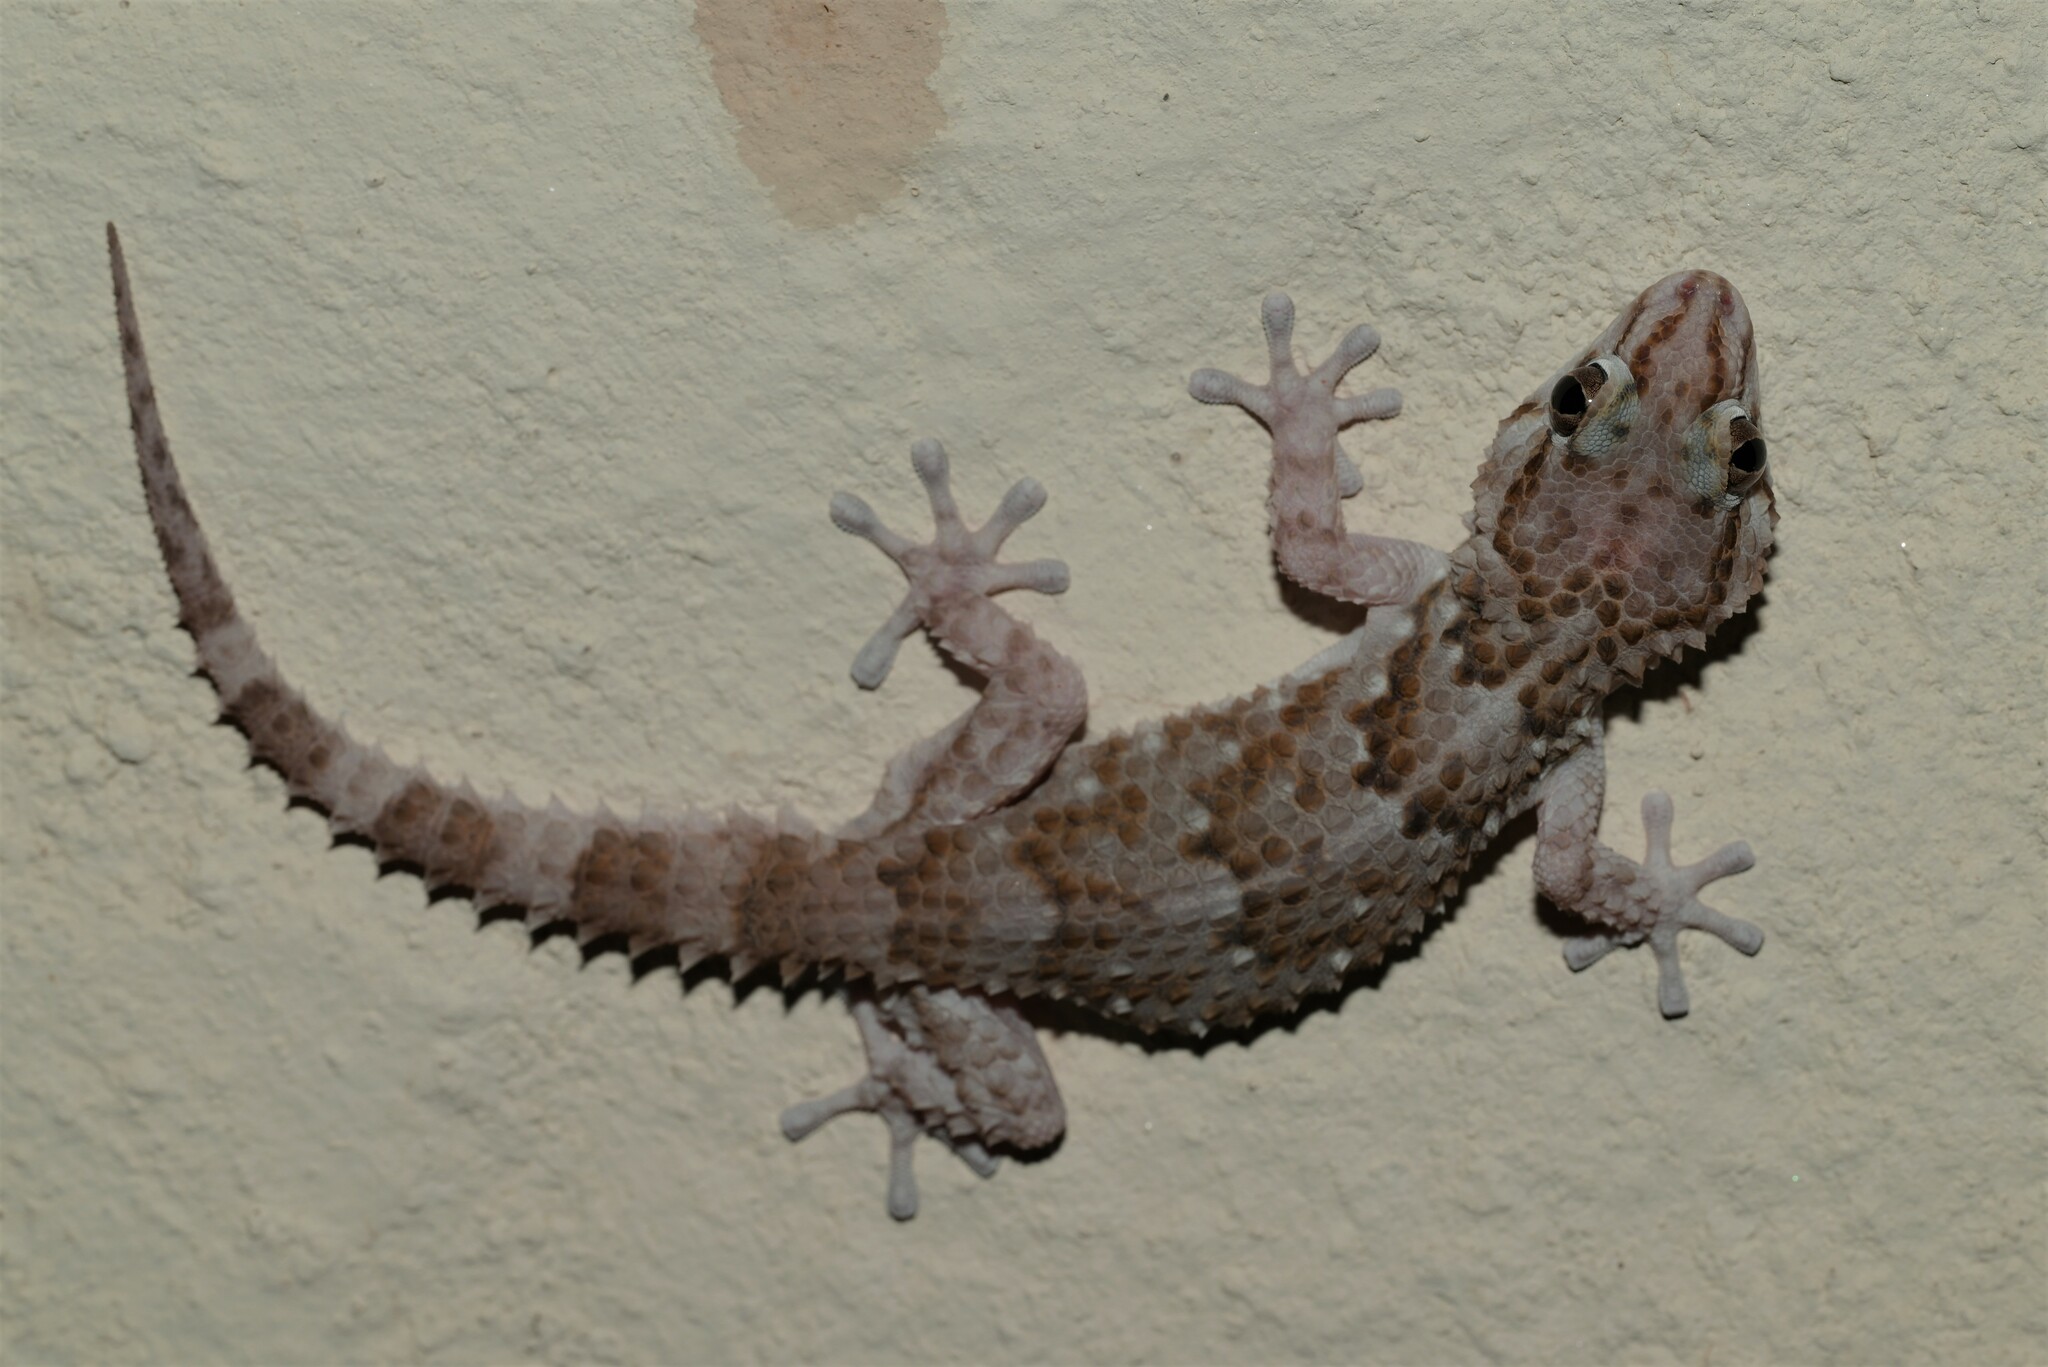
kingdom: Animalia
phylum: Chordata
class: Squamata
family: Gekkonidae
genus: Chondrodactylus
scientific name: Chondrodactylus bibronii
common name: Bibron's gecko
